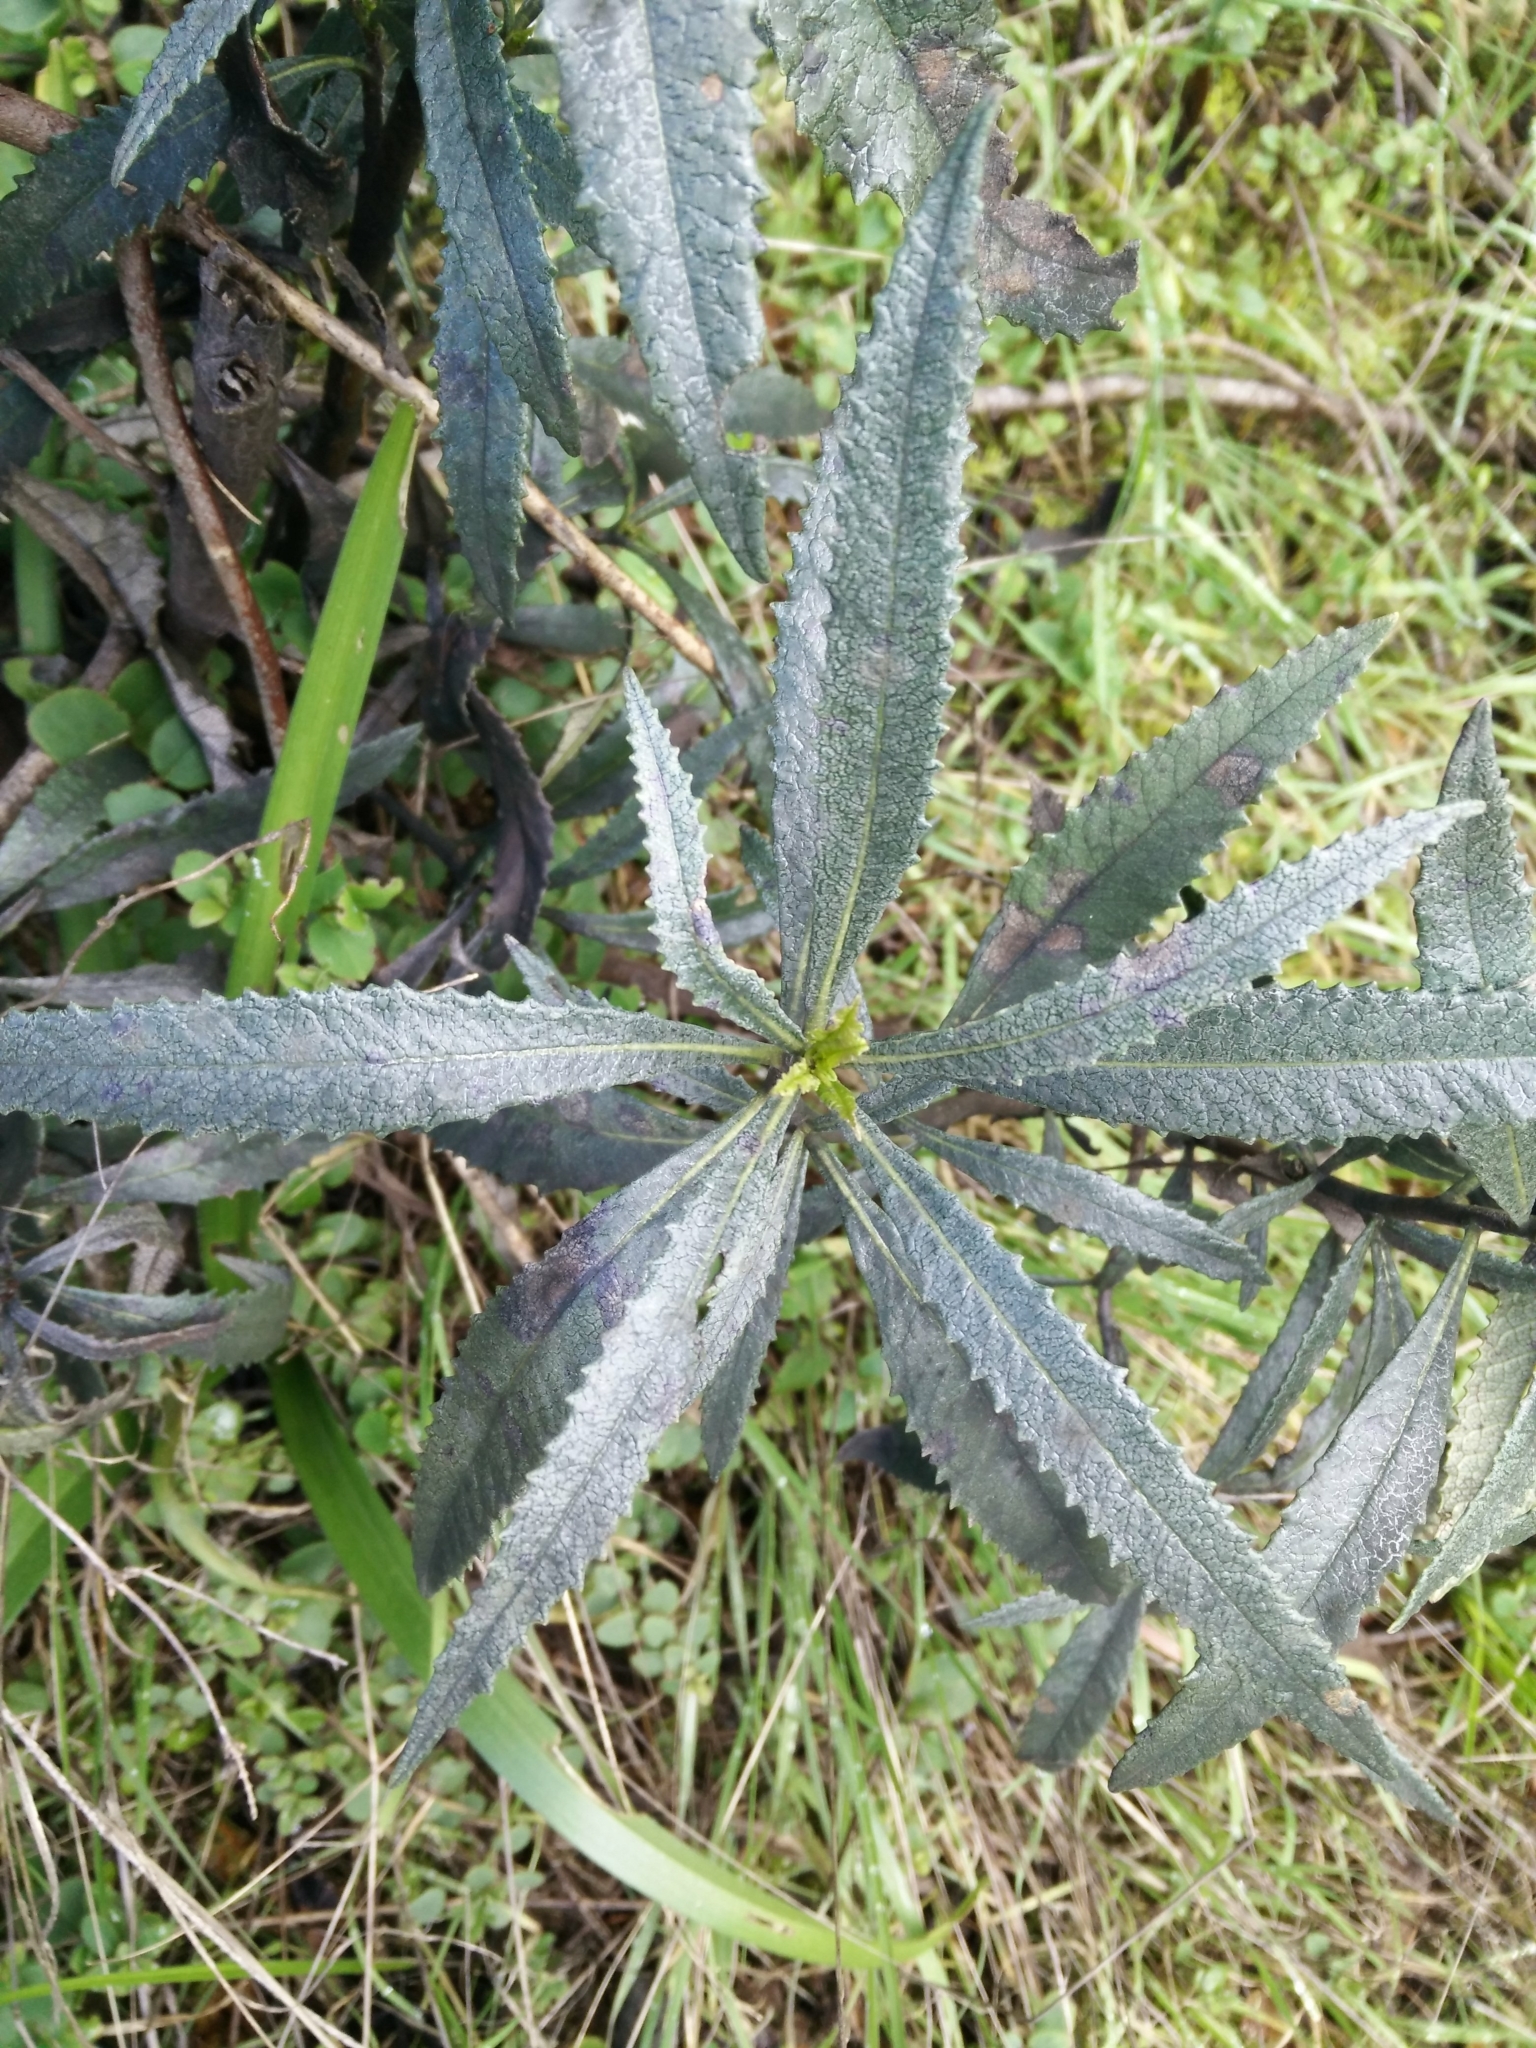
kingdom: Plantae
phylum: Tracheophyta
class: Magnoliopsida
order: Boraginales
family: Namaceae
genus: Eriodictyon
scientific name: Eriodictyon californicum
